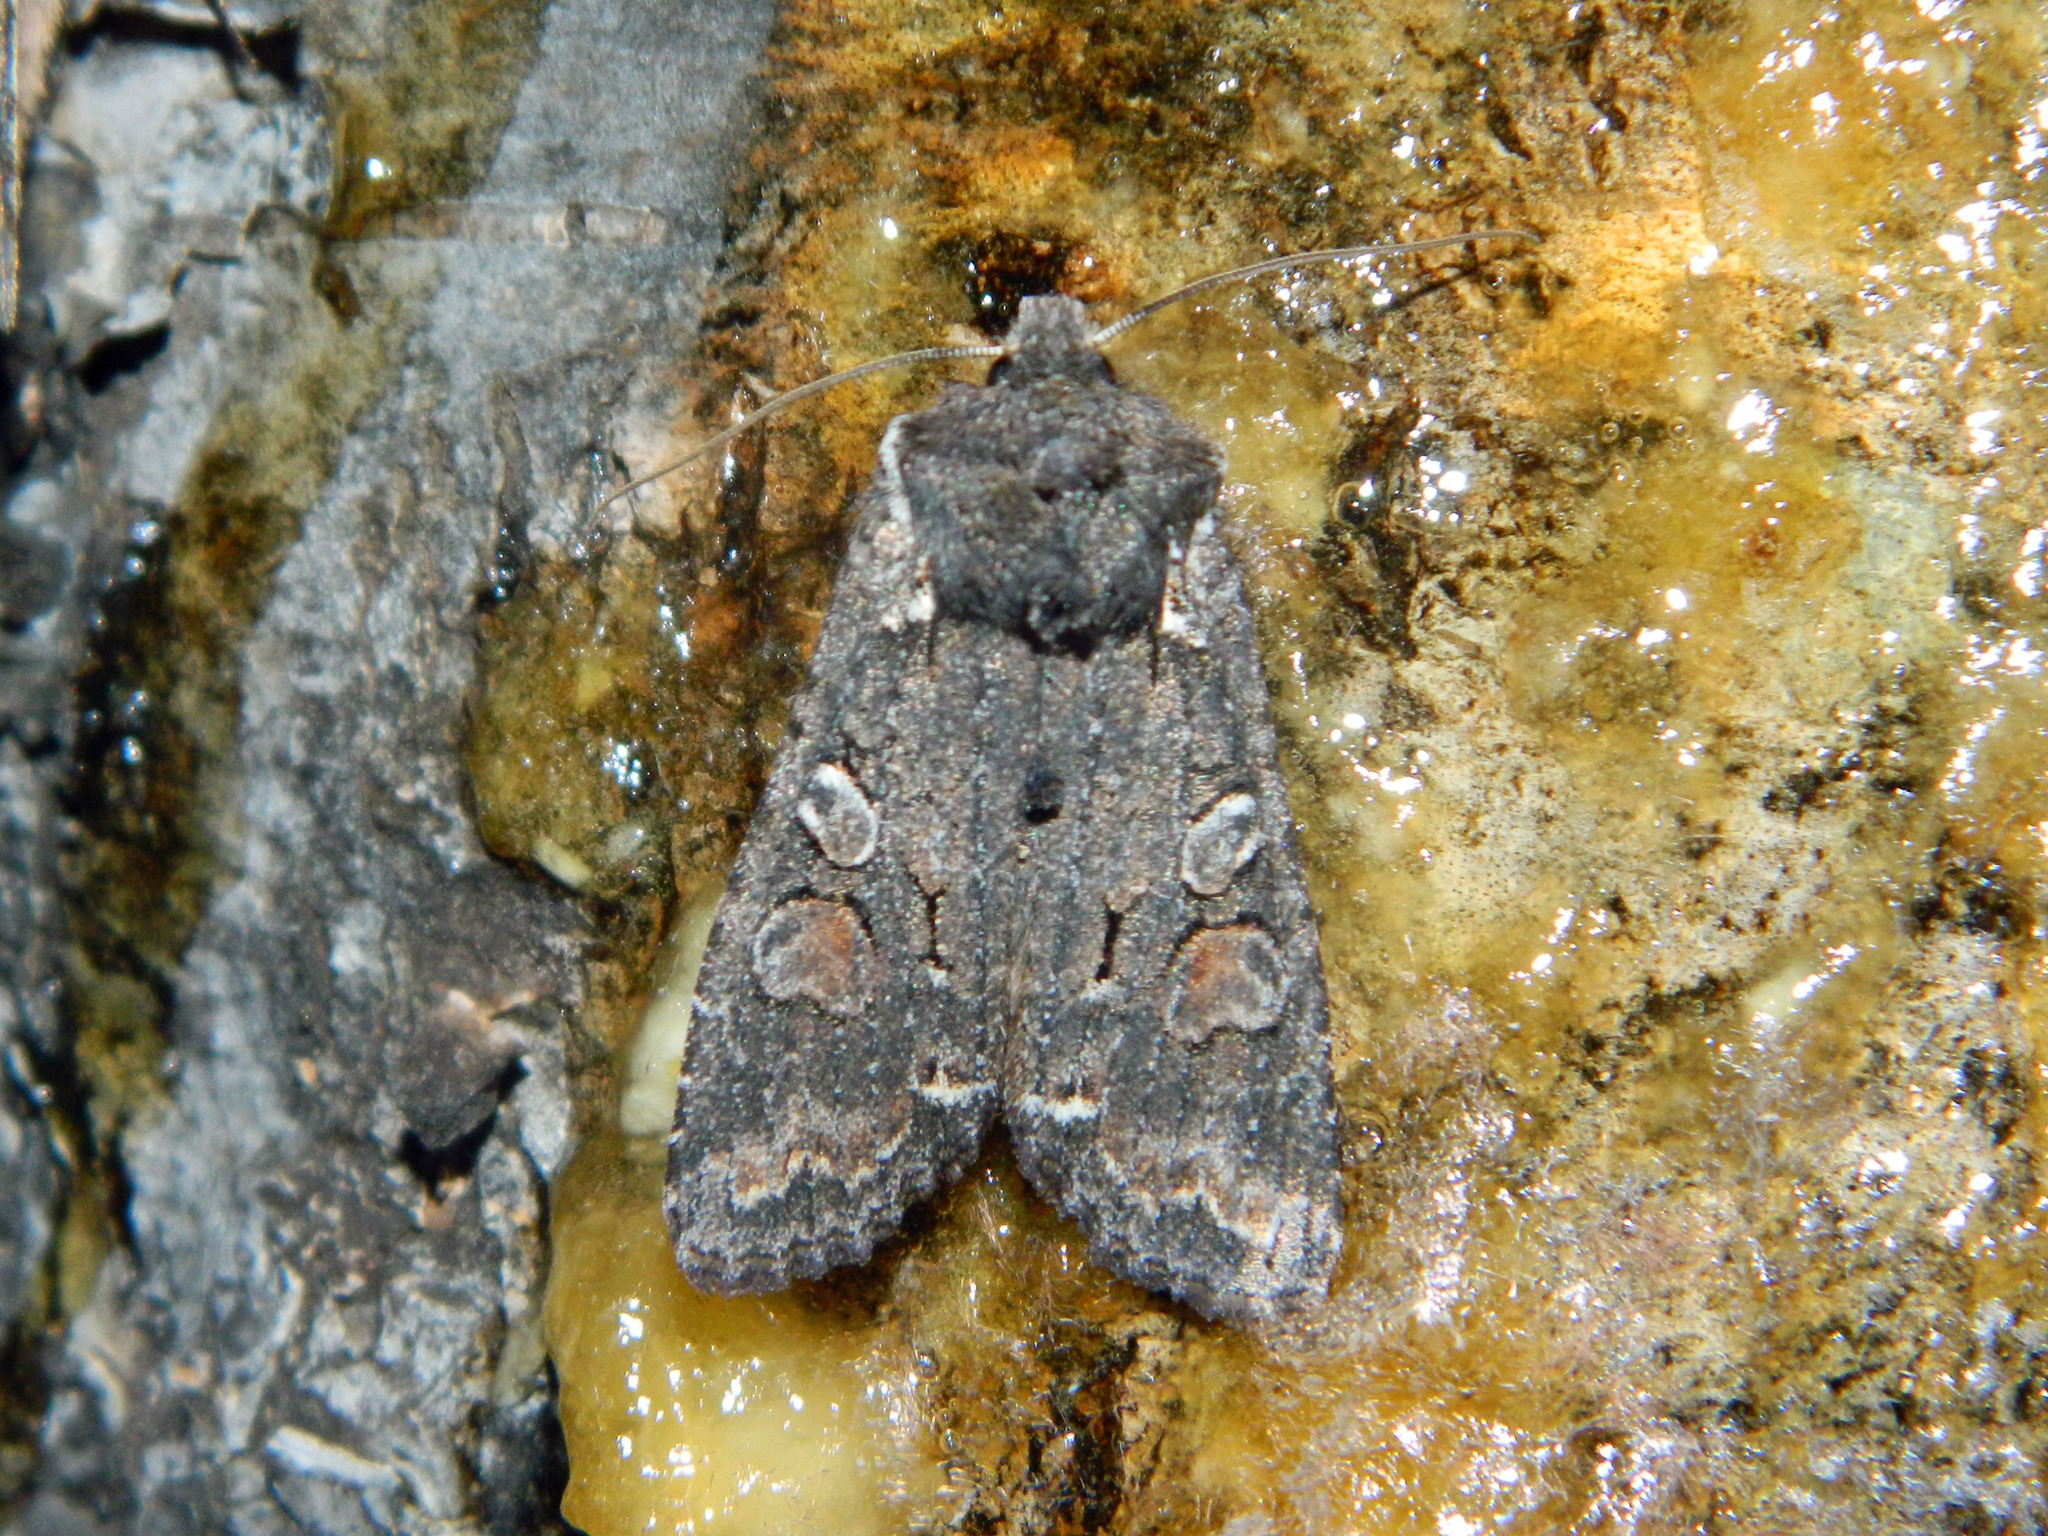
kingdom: Animalia
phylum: Arthropoda
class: Insecta
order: Lepidoptera
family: Noctuidae
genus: Lithophane
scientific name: Lithophane pexata
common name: Plush-naped pinion moth
